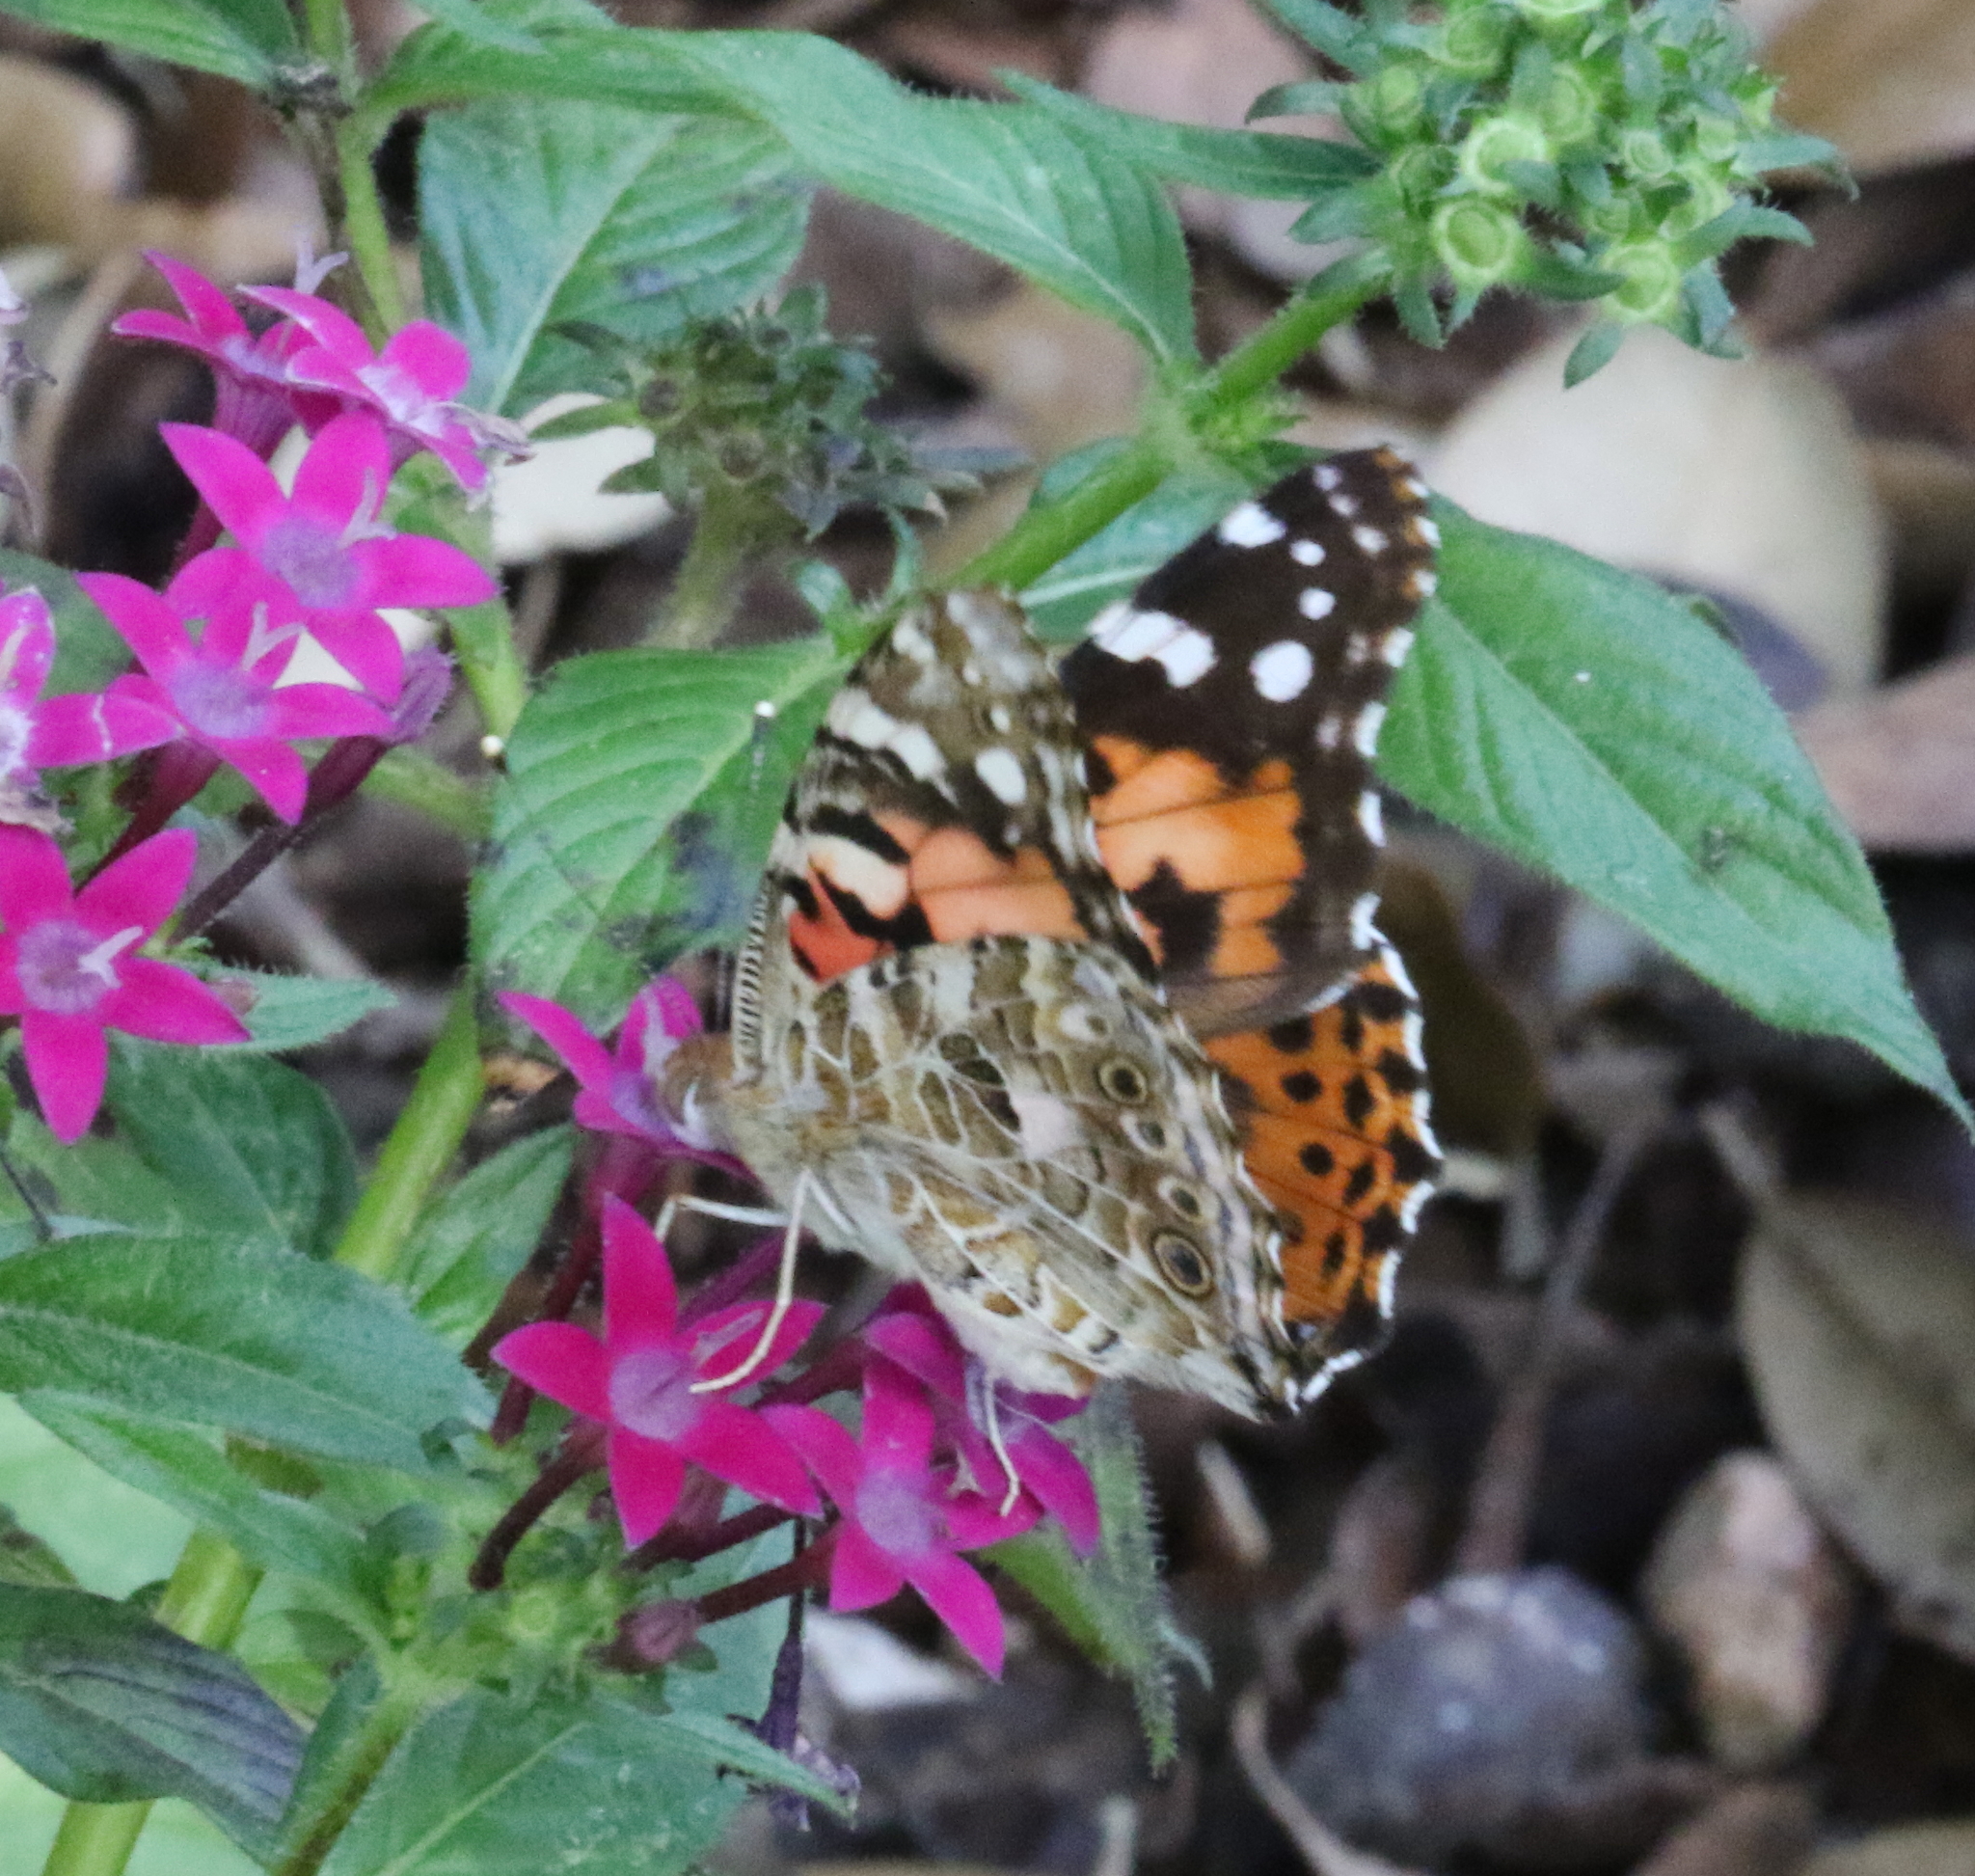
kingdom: Animalia
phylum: Arthropoda
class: Insecta
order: Lepidoptera
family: Nymphalidae
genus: Vanessa
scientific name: Vanessa cardui
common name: Painted lady
